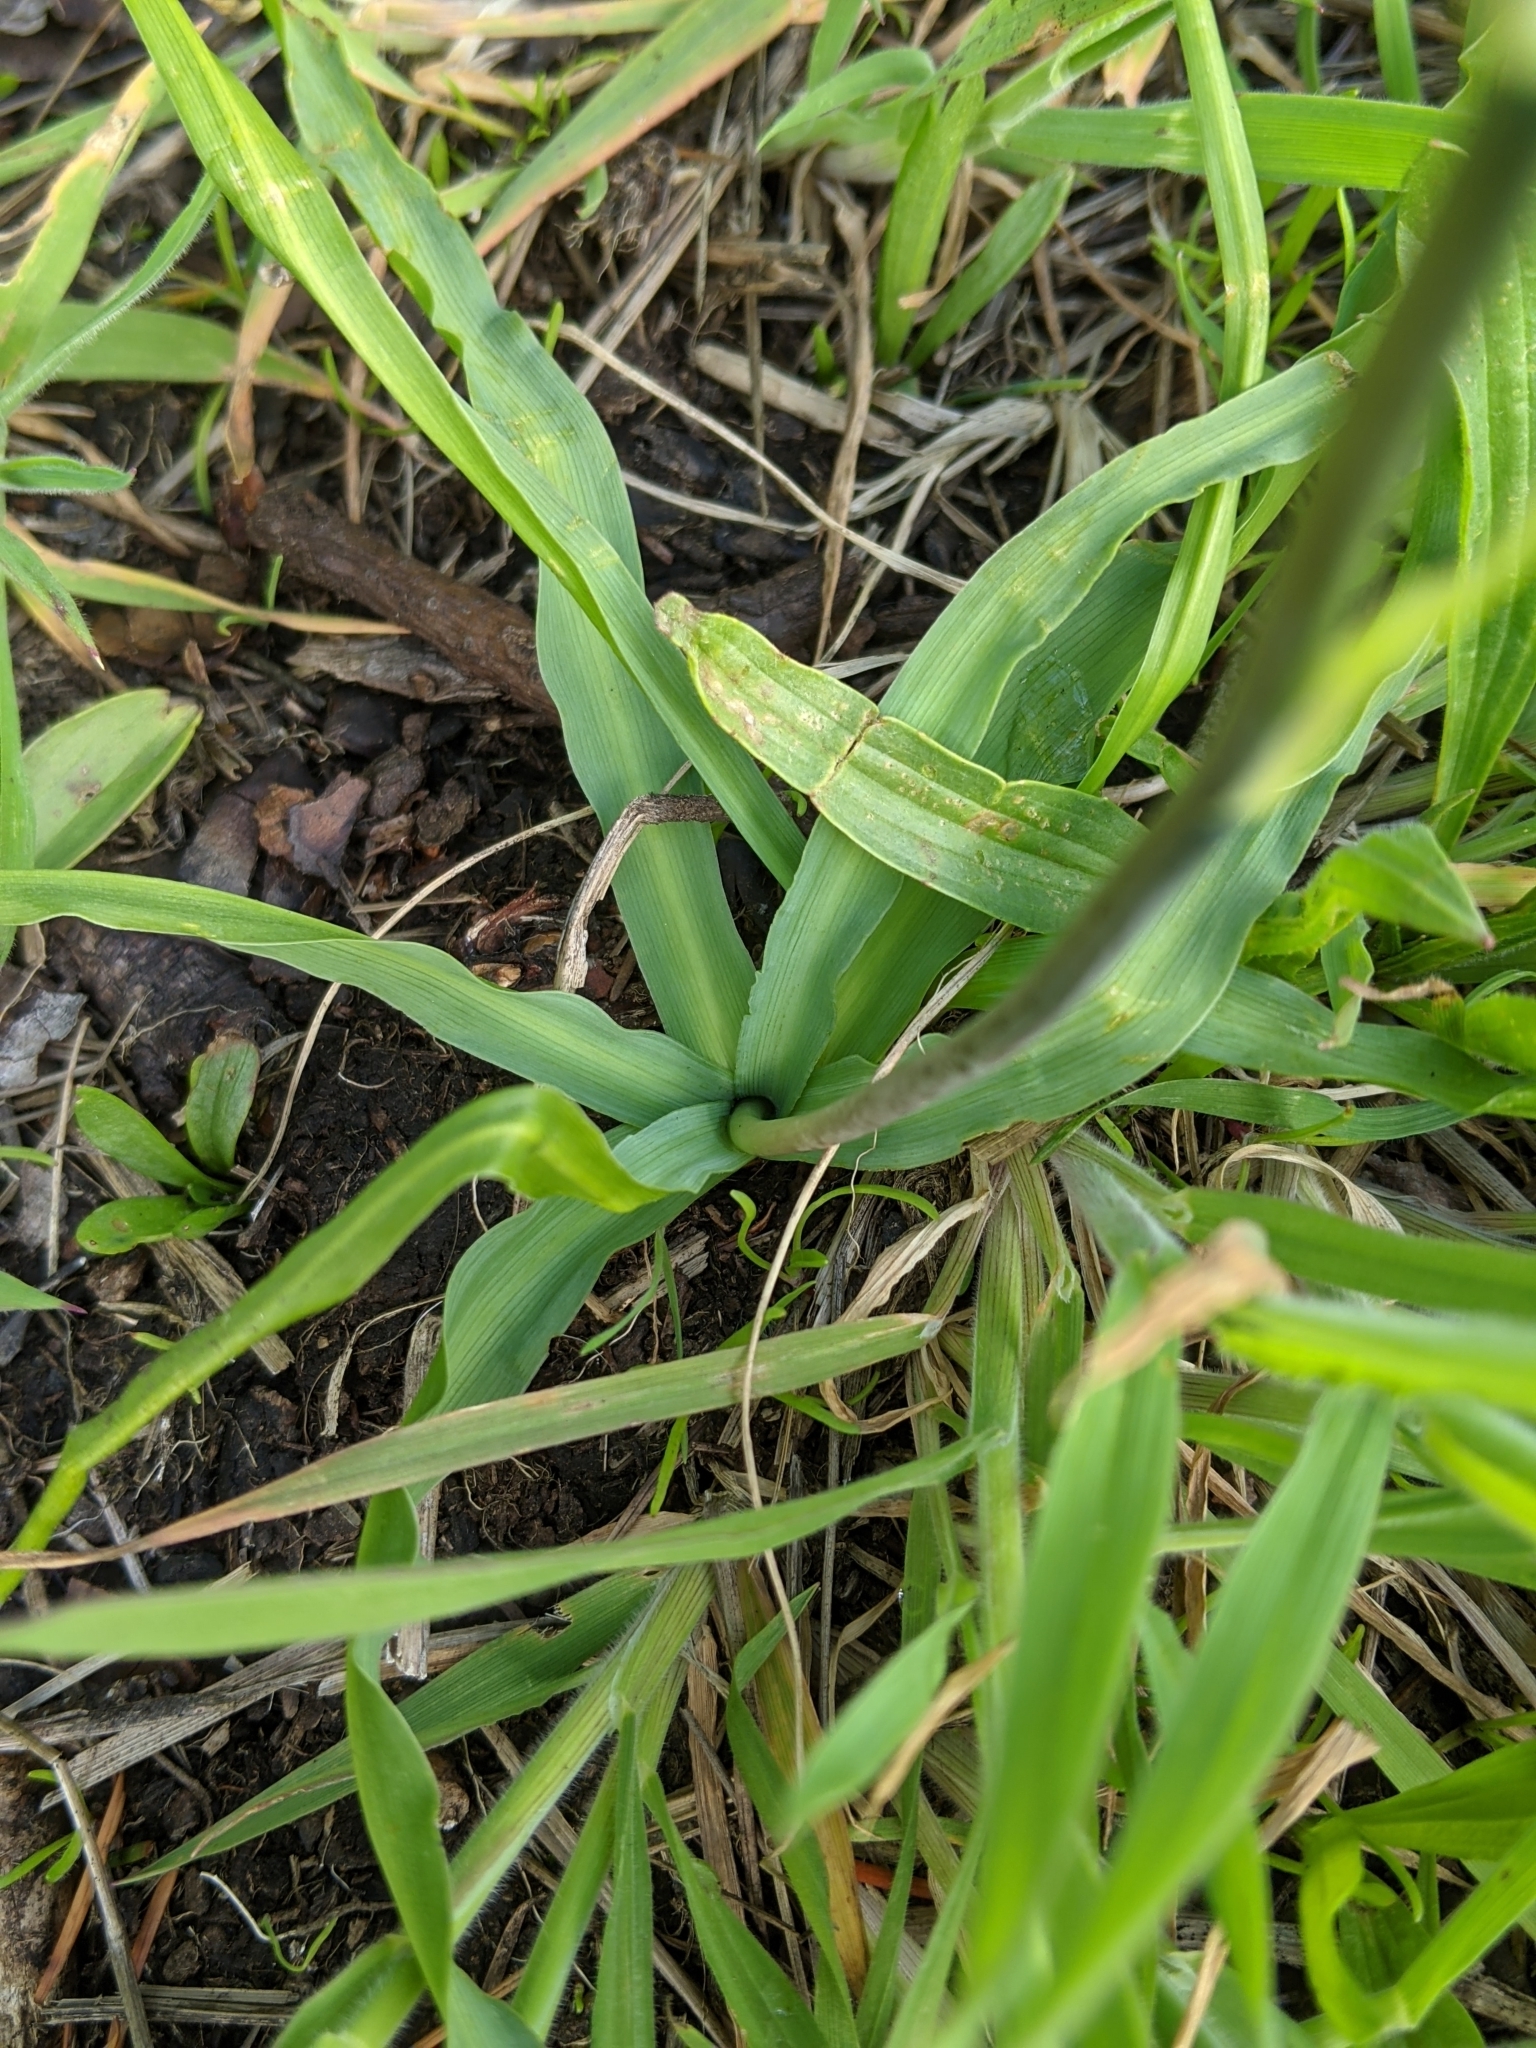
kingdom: Plantae
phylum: Tracheophyta
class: Liliopsida
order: Asparagales
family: Asparagaceae
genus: Camassia
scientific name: Camassia quamash
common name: Common camas
